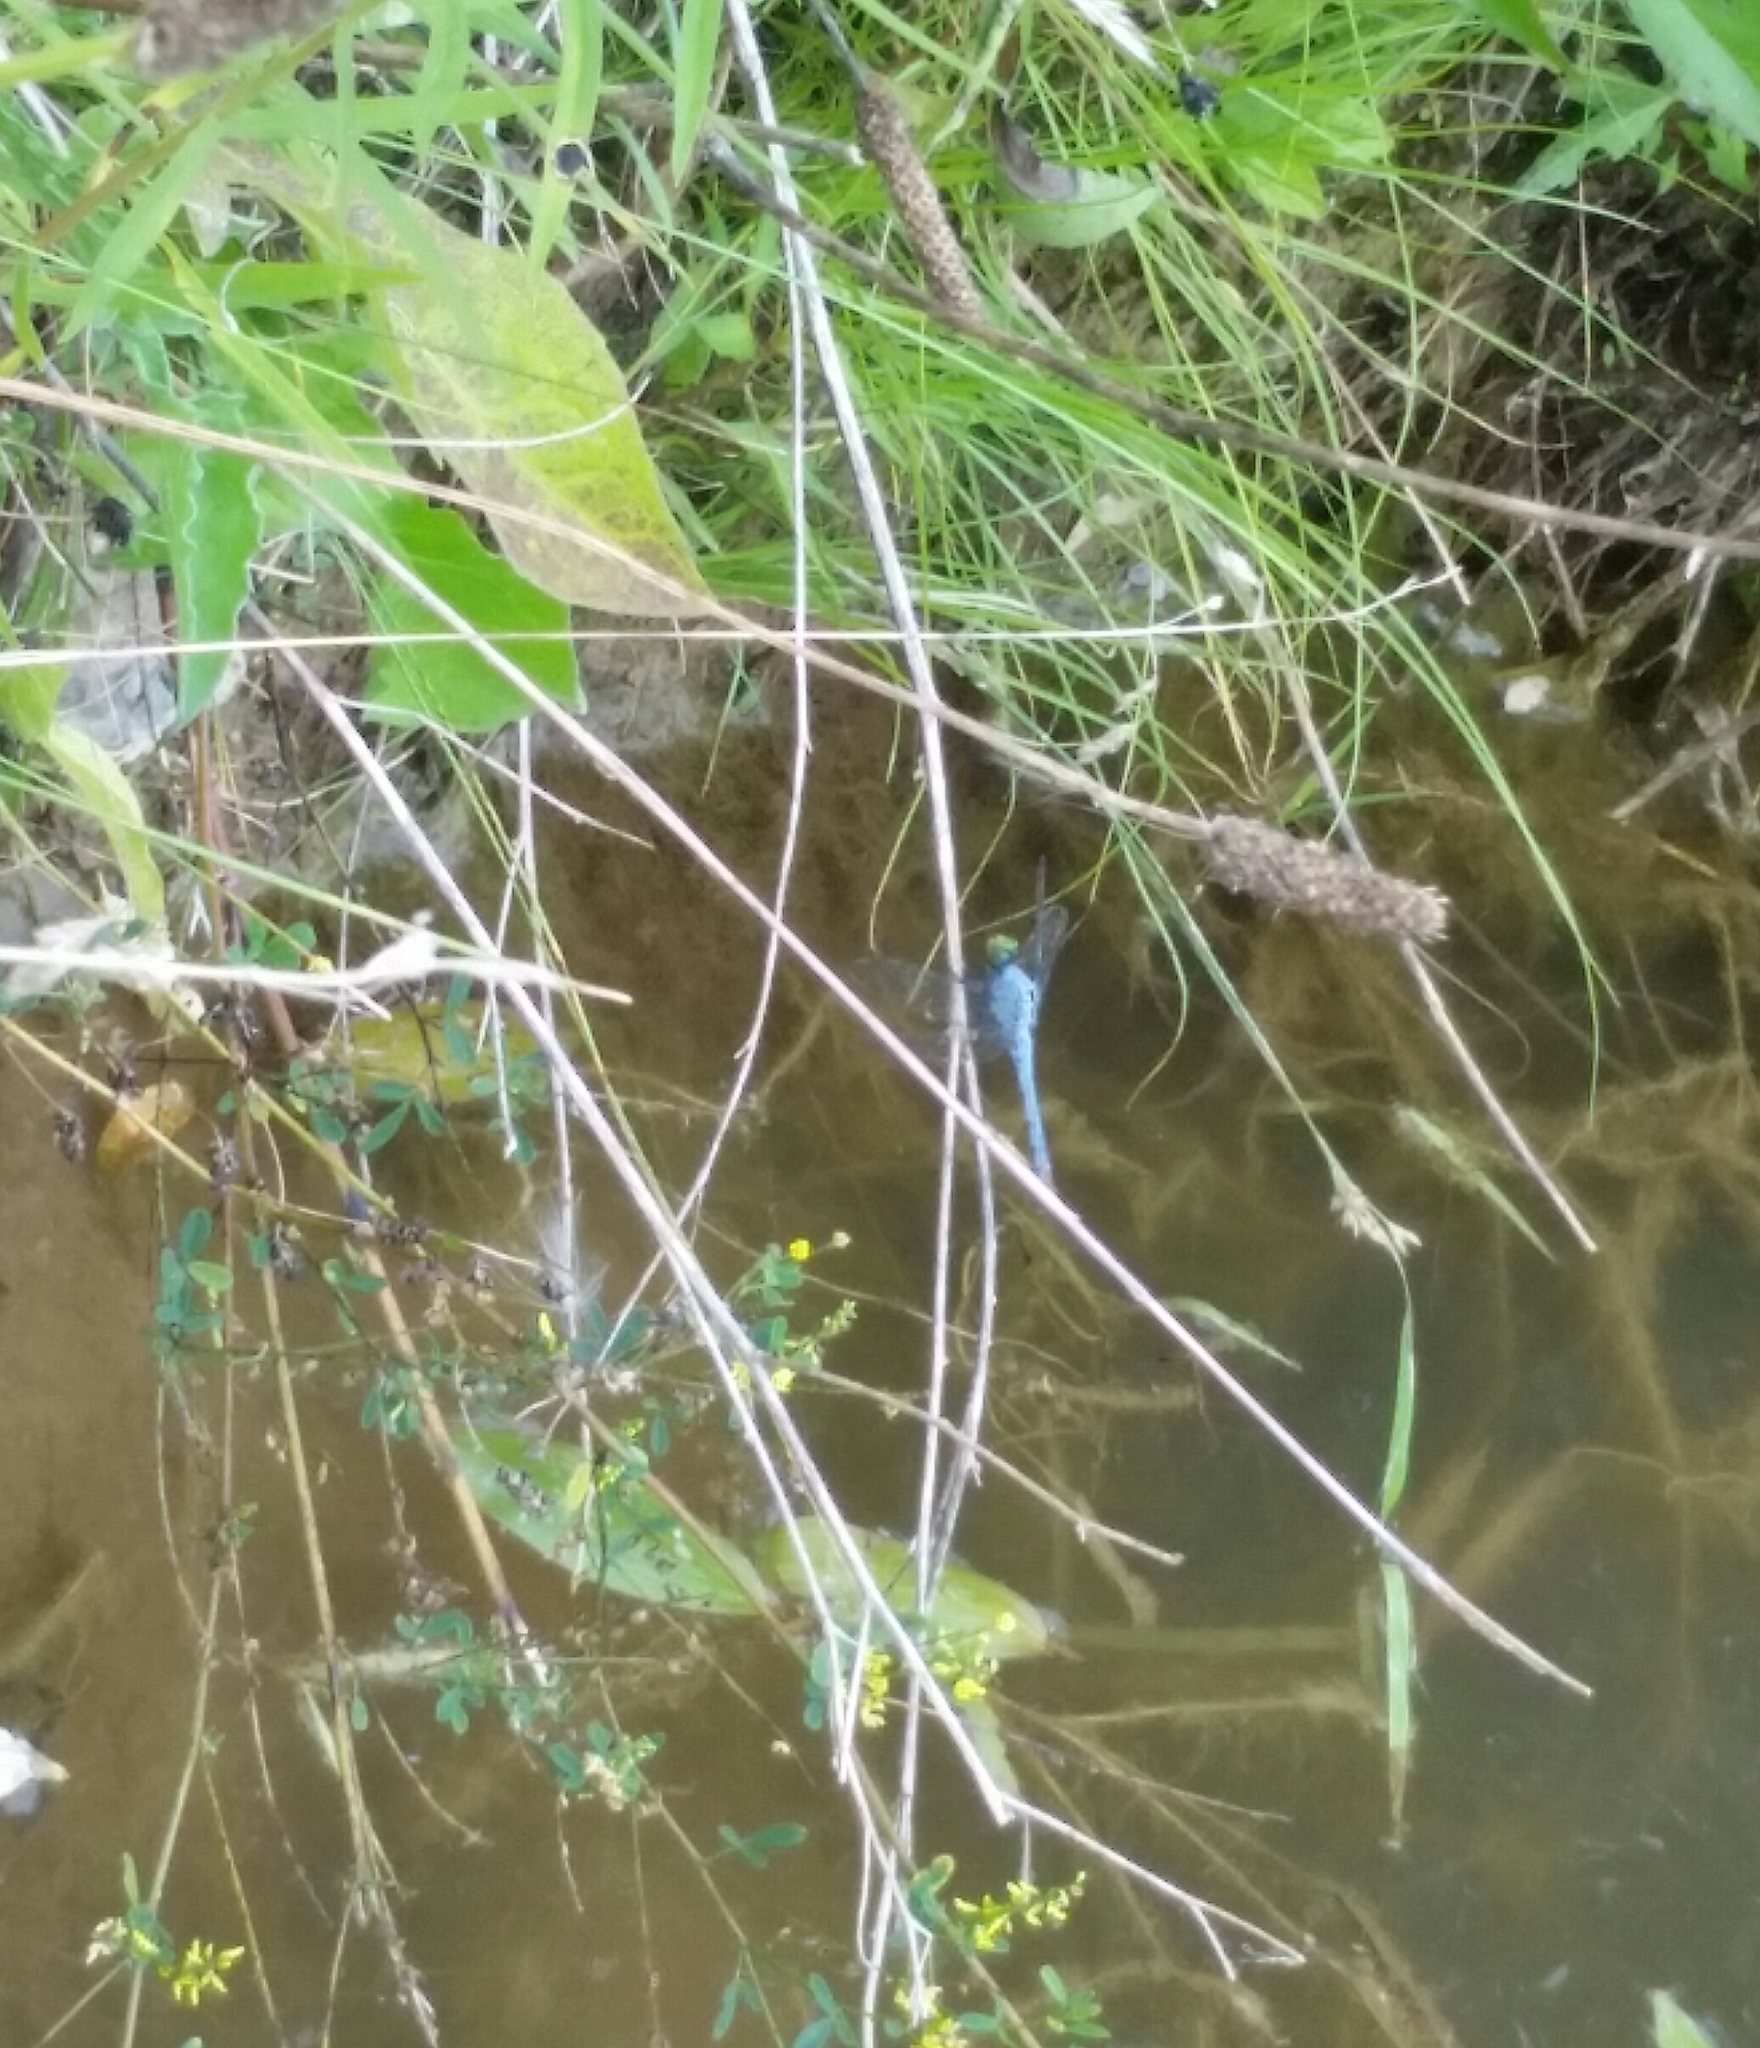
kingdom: Animalia
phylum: Arthropoda
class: Insecta
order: Odonata
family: Libellulidae
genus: Erythemis
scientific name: Erythemis simplicicollis
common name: Eastern pondhawk
